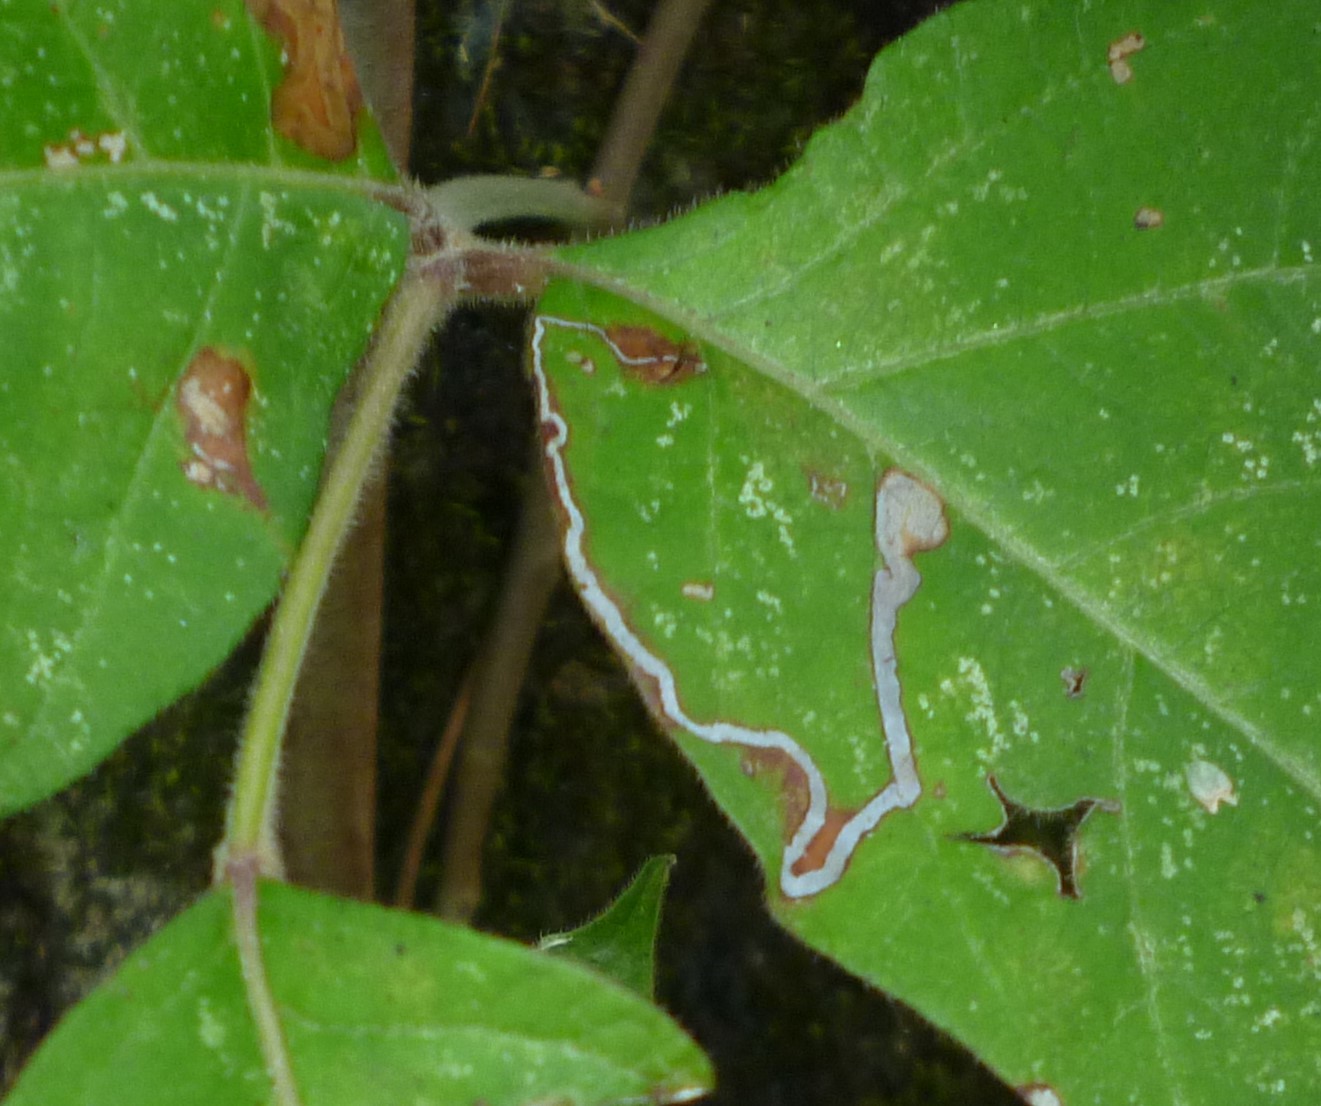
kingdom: Animalia
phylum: Arthropoda
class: Insecta
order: Lepidoptera
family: Nepticulidae
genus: Stigmella
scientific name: Stigmella rhoifoliella
